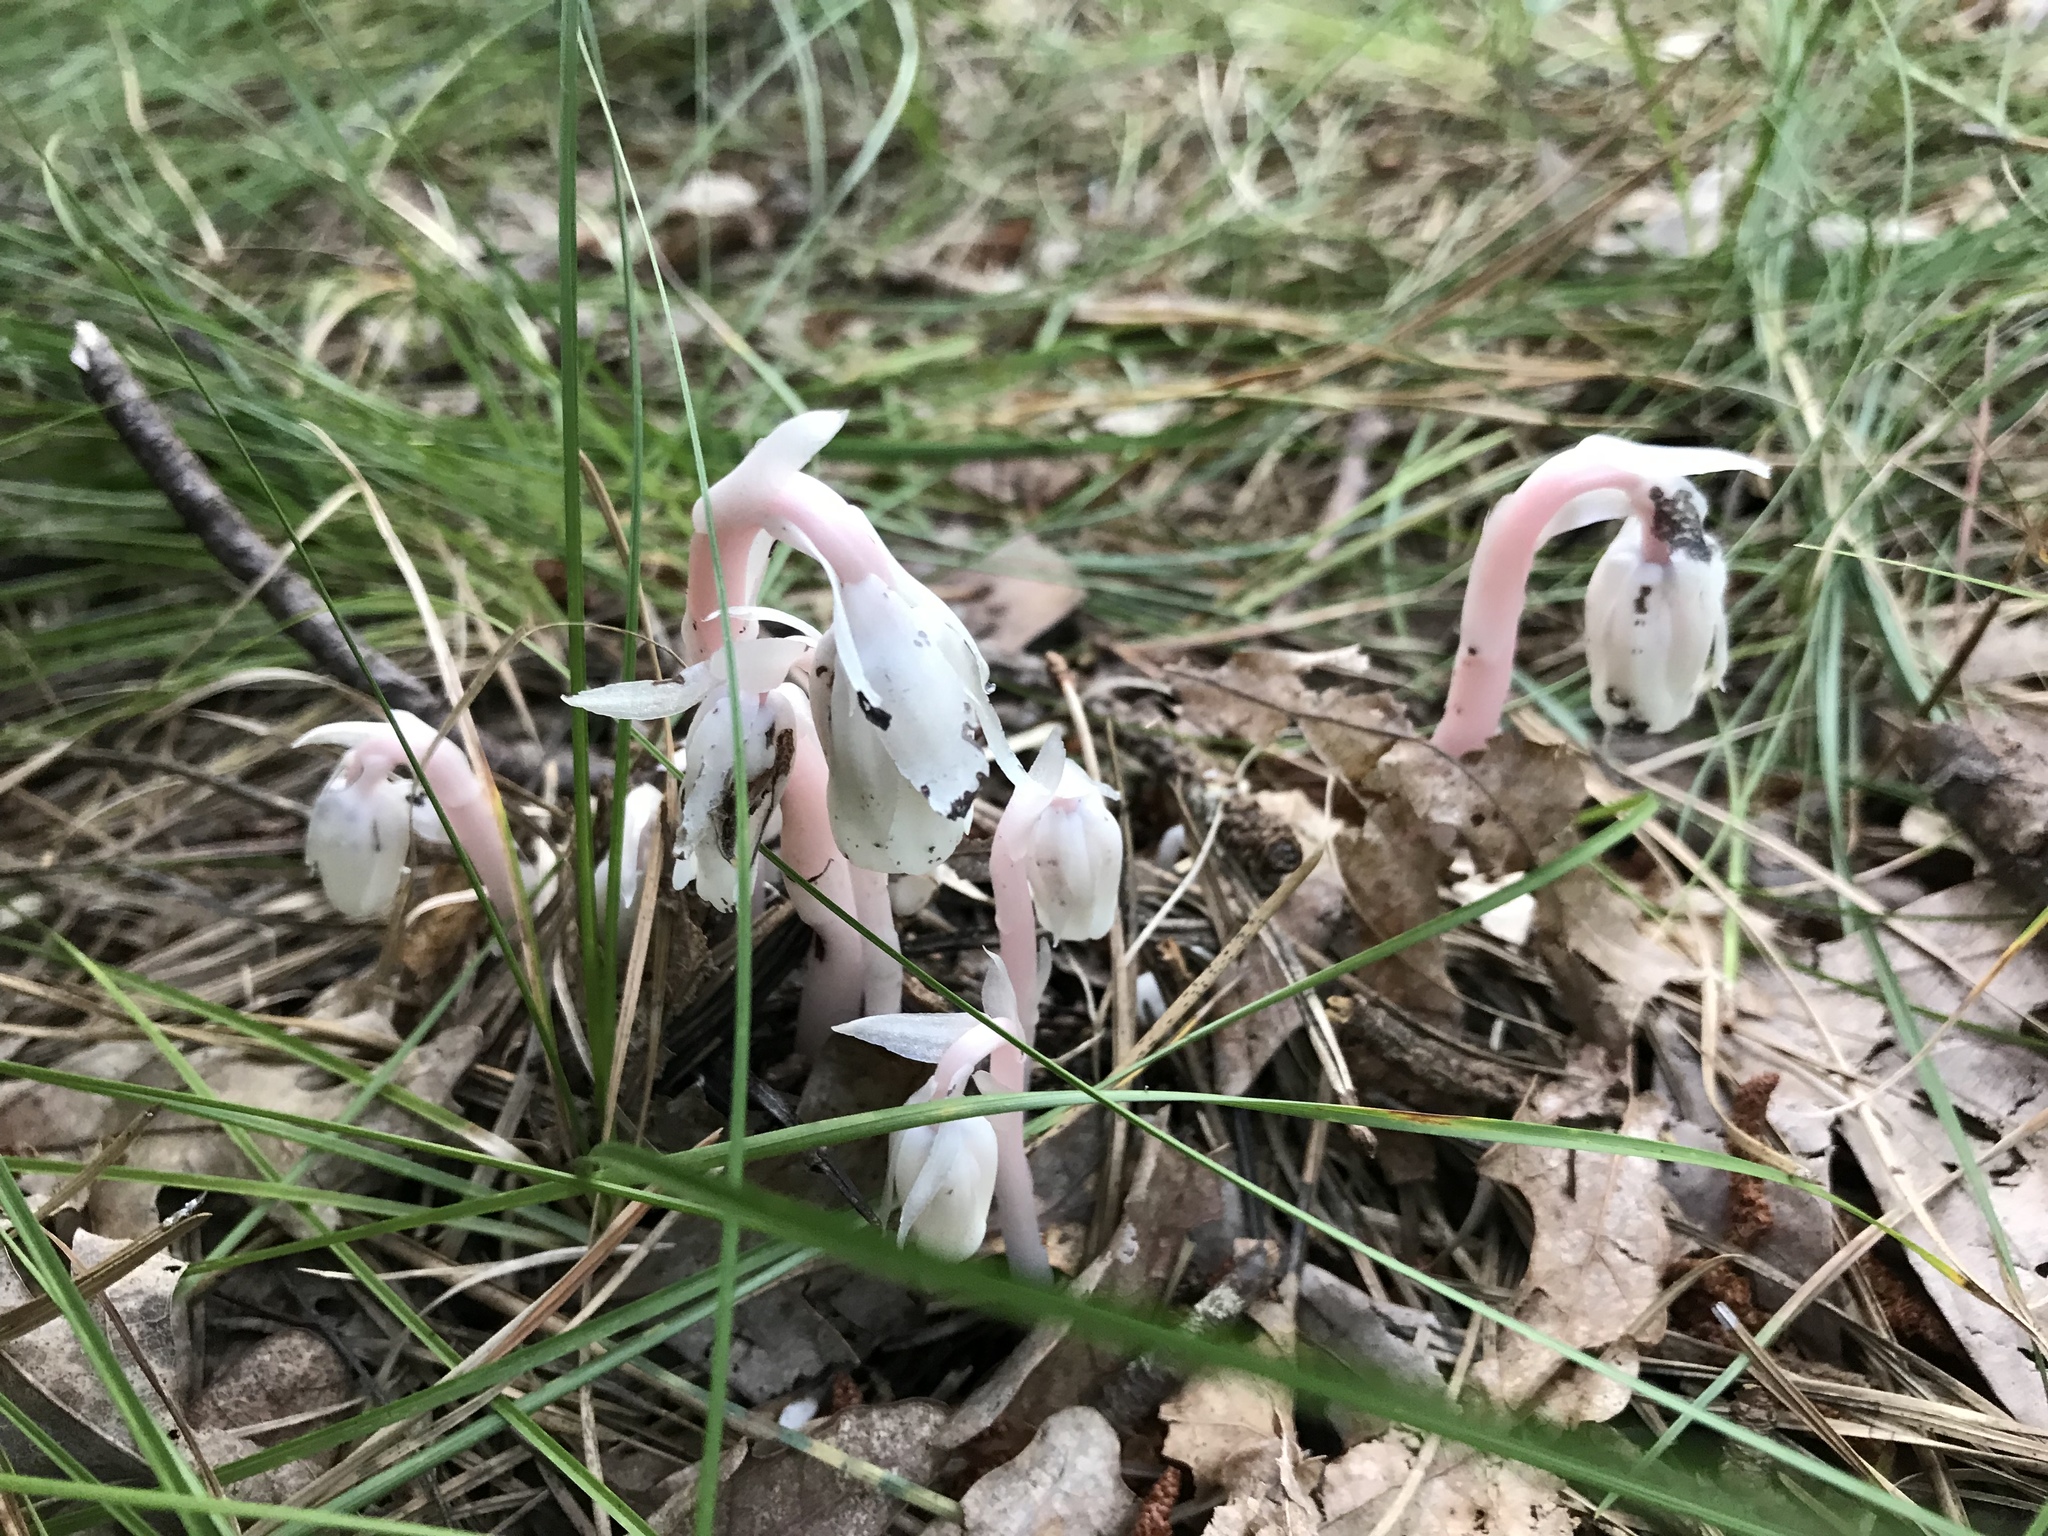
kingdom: Plantae
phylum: Tracheophyta
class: Magnoliopsida
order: Ericales
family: Ericaceae
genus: Monotropa
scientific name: Monotropa uniflora
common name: Convulsion root
